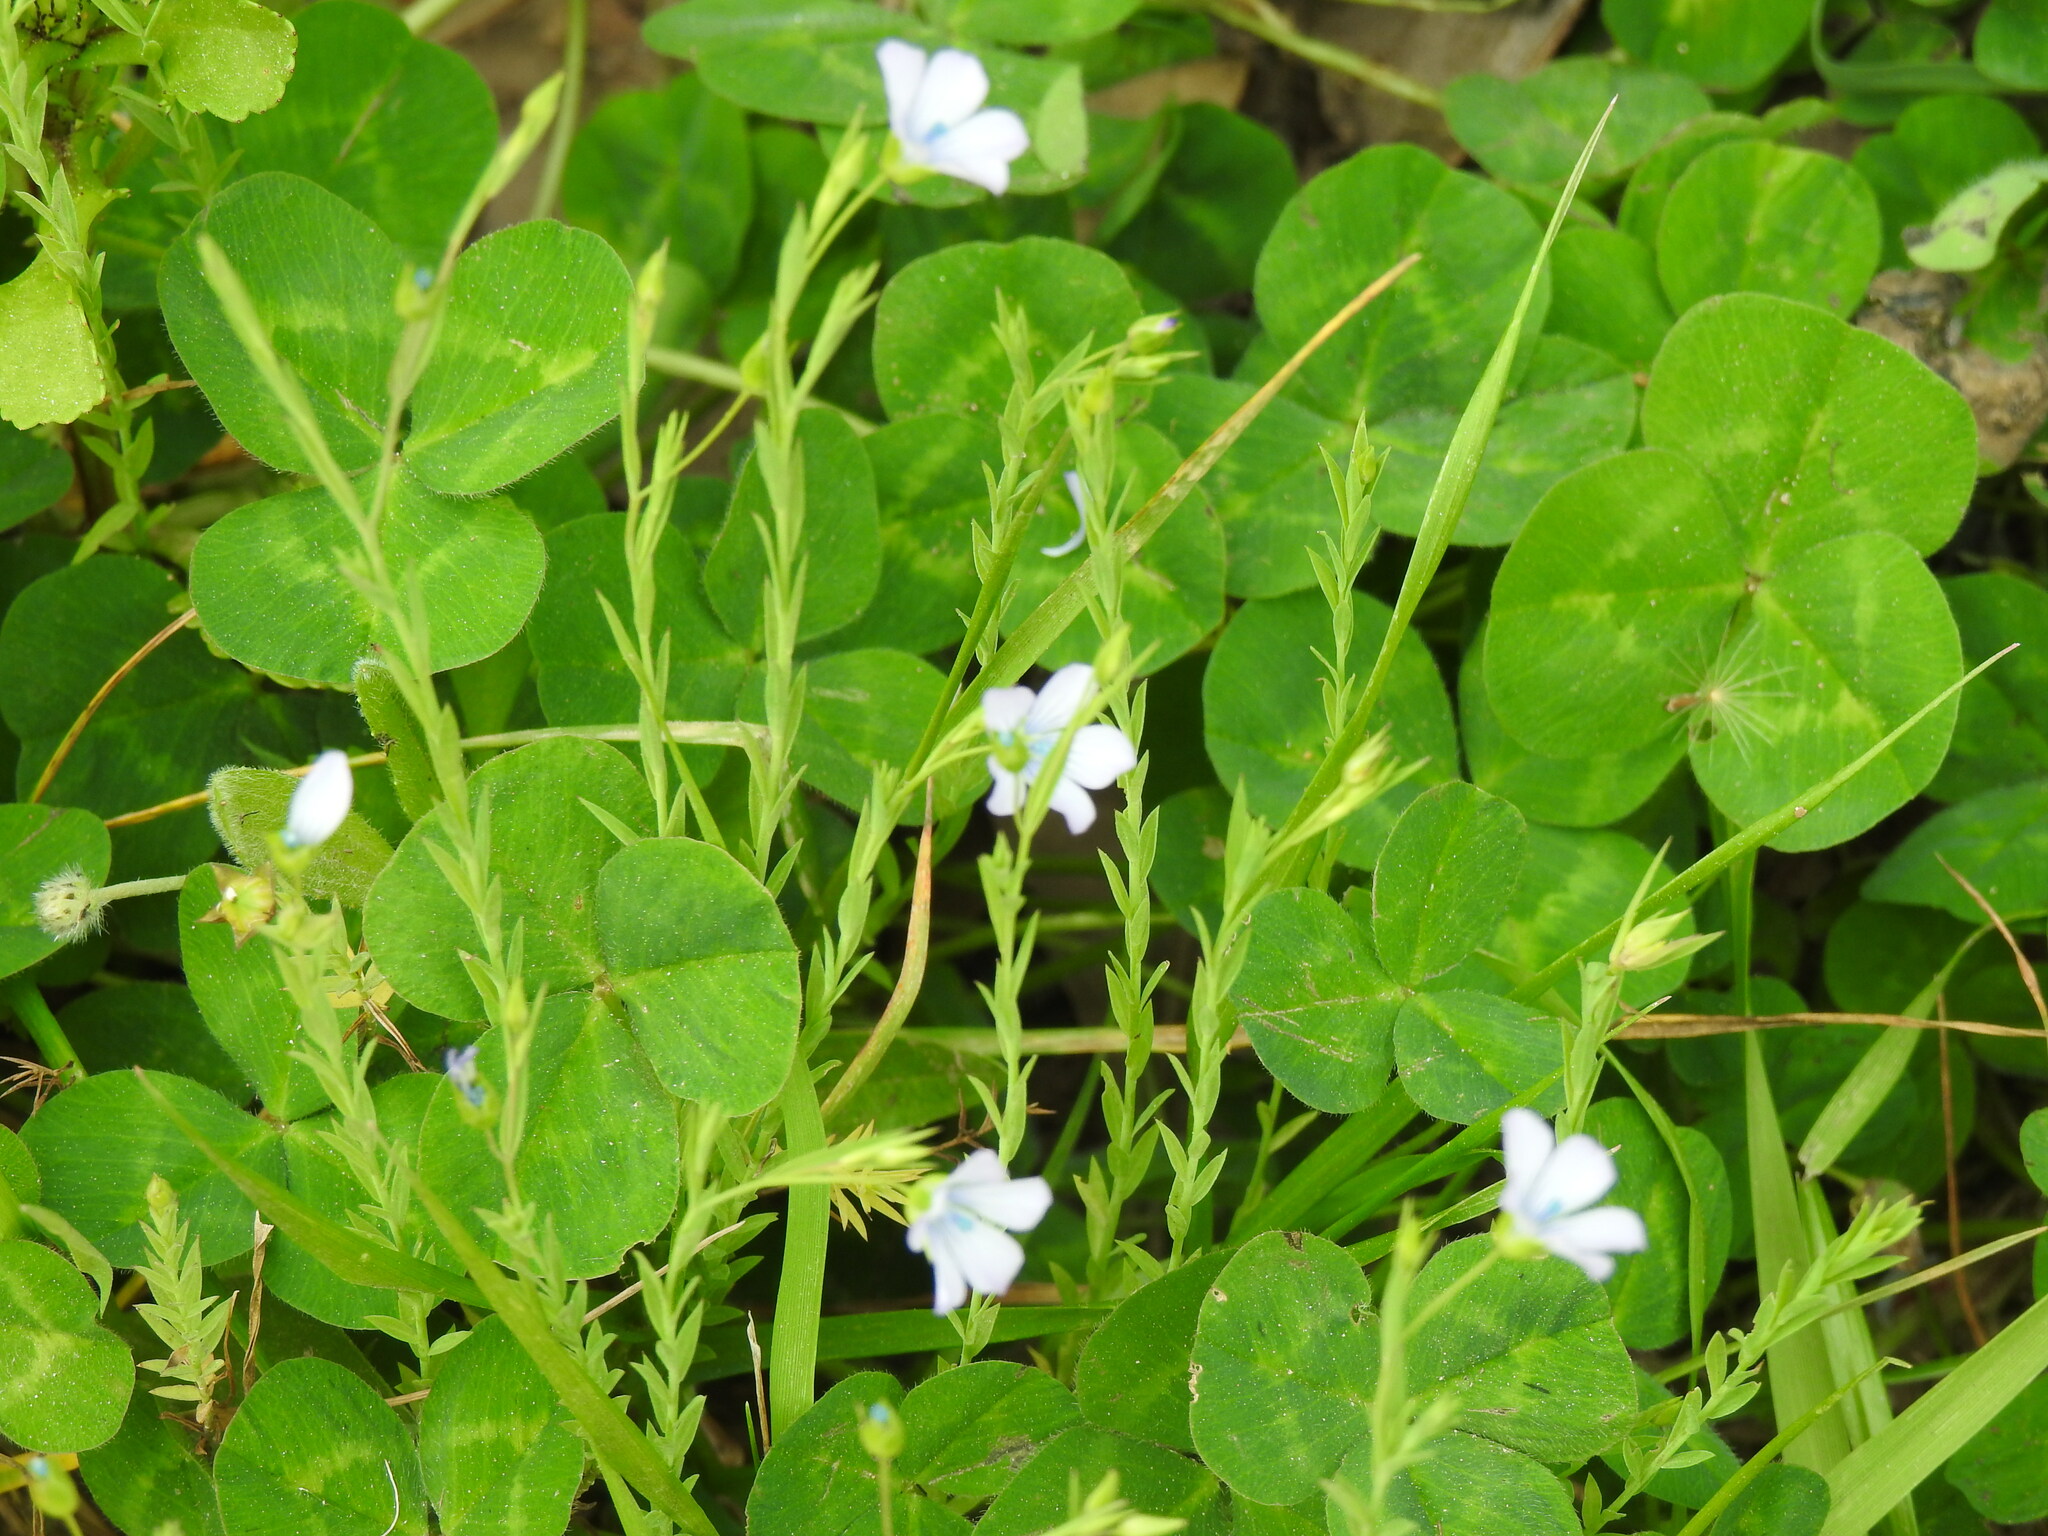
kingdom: Plantae
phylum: Tracheophyta
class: Magnoliopsida
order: Malpighiales
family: Linaceae
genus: Linum
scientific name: Linum bienne
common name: Pale flax
